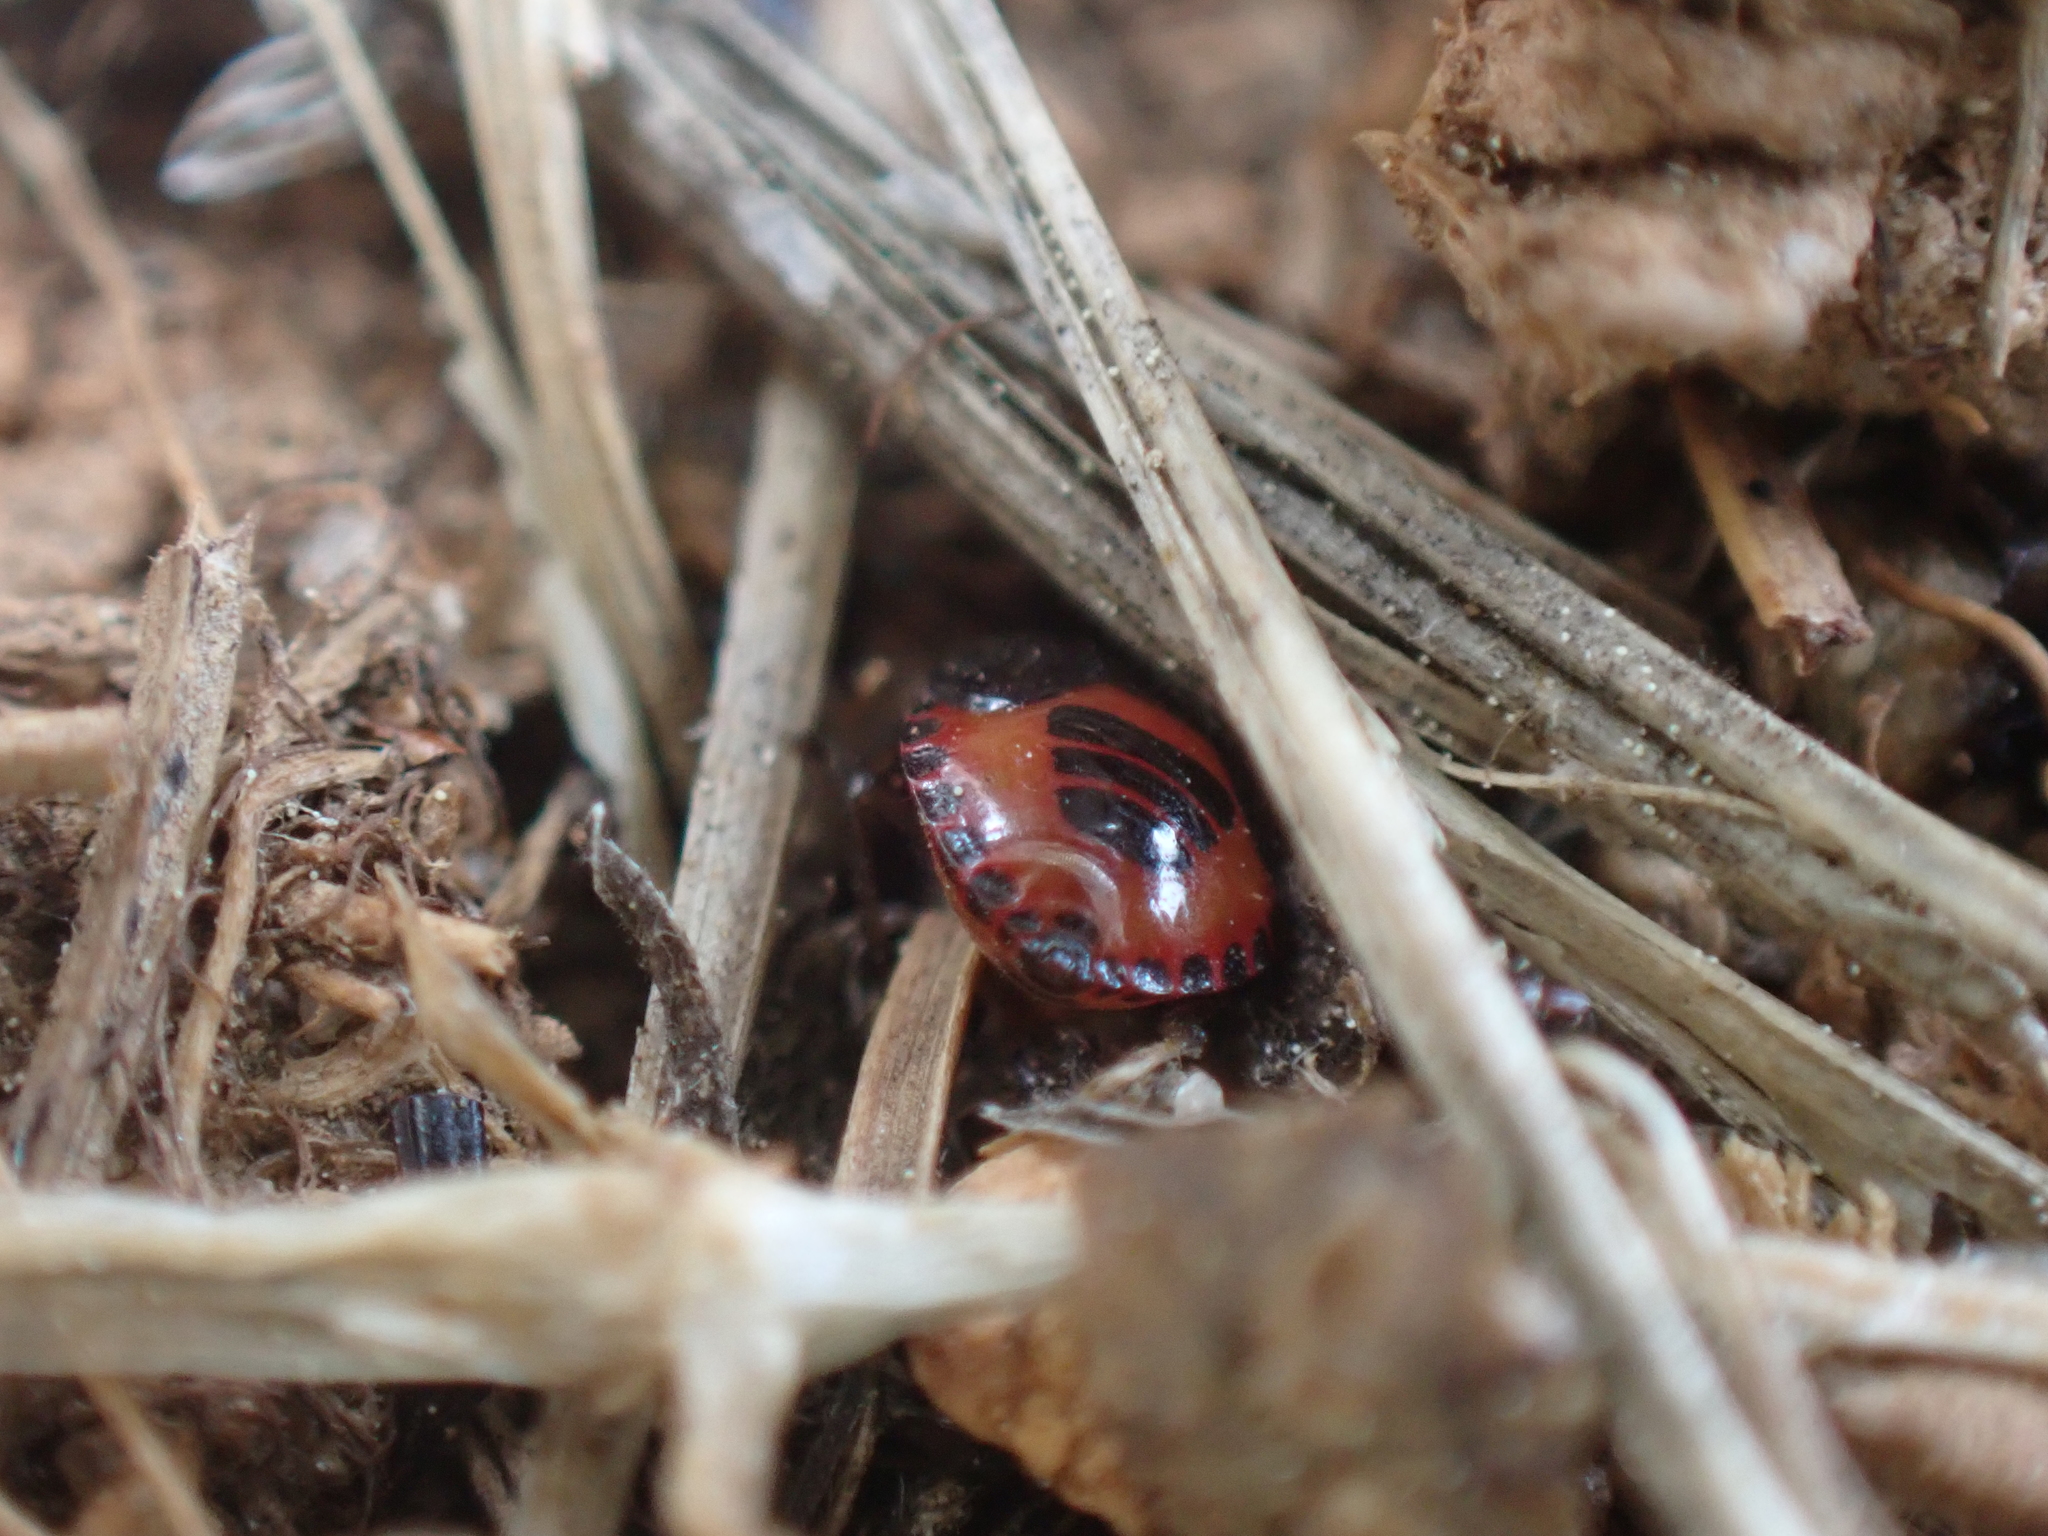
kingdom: Animalia
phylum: Arthropoda
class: Insecta
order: Hemiptera
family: Cydnidae
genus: Sehirus
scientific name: Sehirus cinctus
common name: White-margined burrower bug
